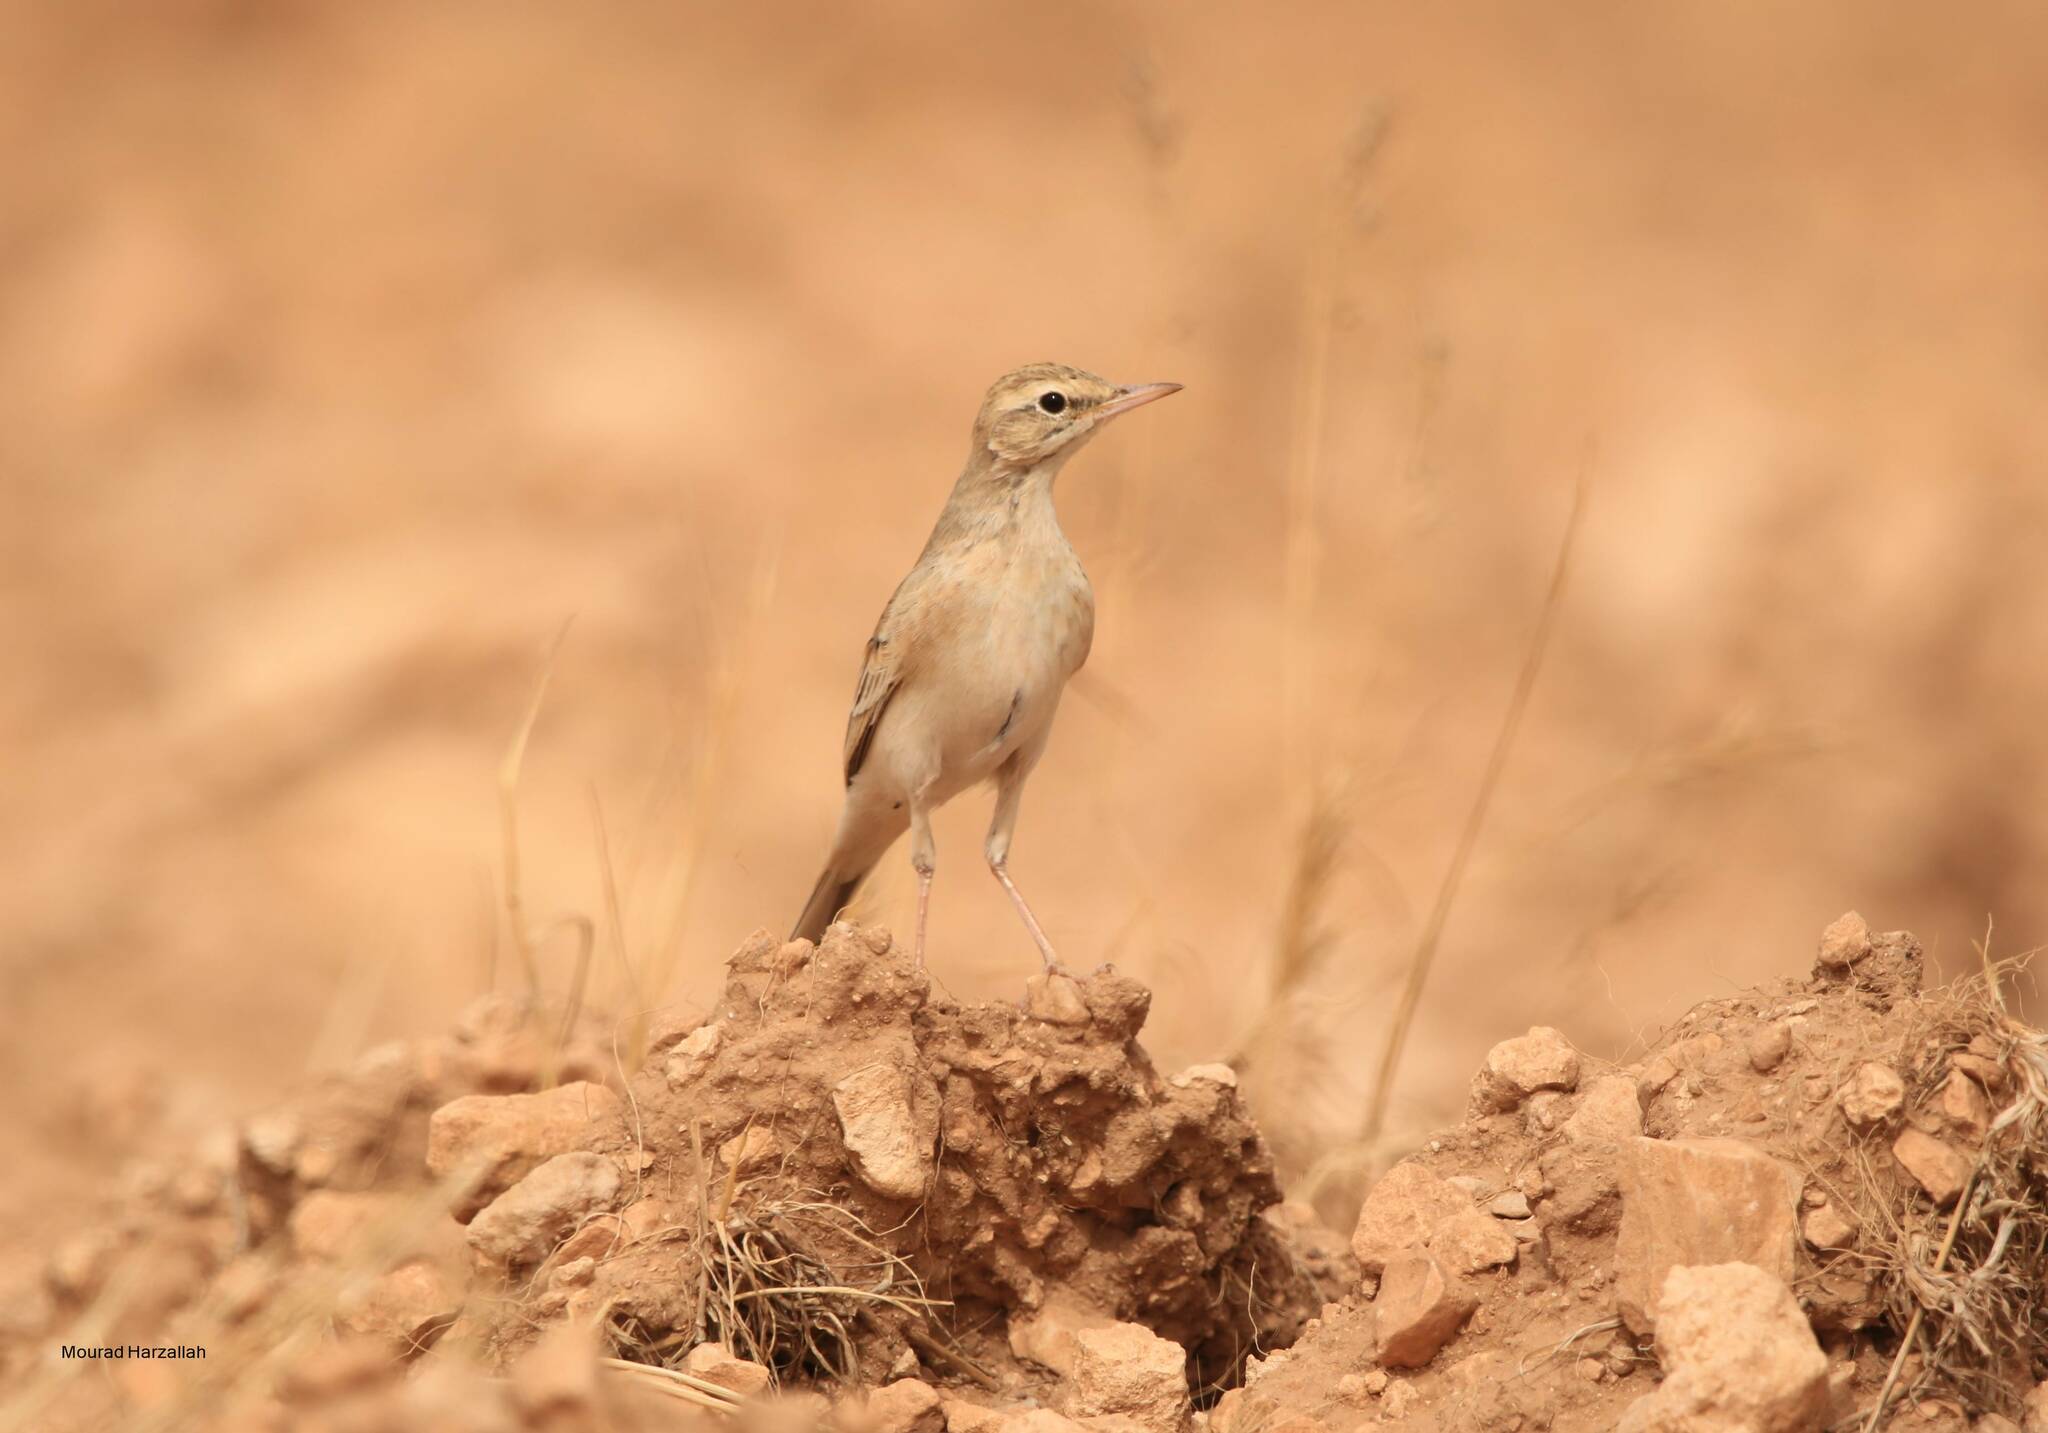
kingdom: Animalia
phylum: Chordata
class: Aves
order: Passeriformes
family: Motacillidae
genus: Anthus
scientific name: Anthus campestris
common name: Tawny pipit
